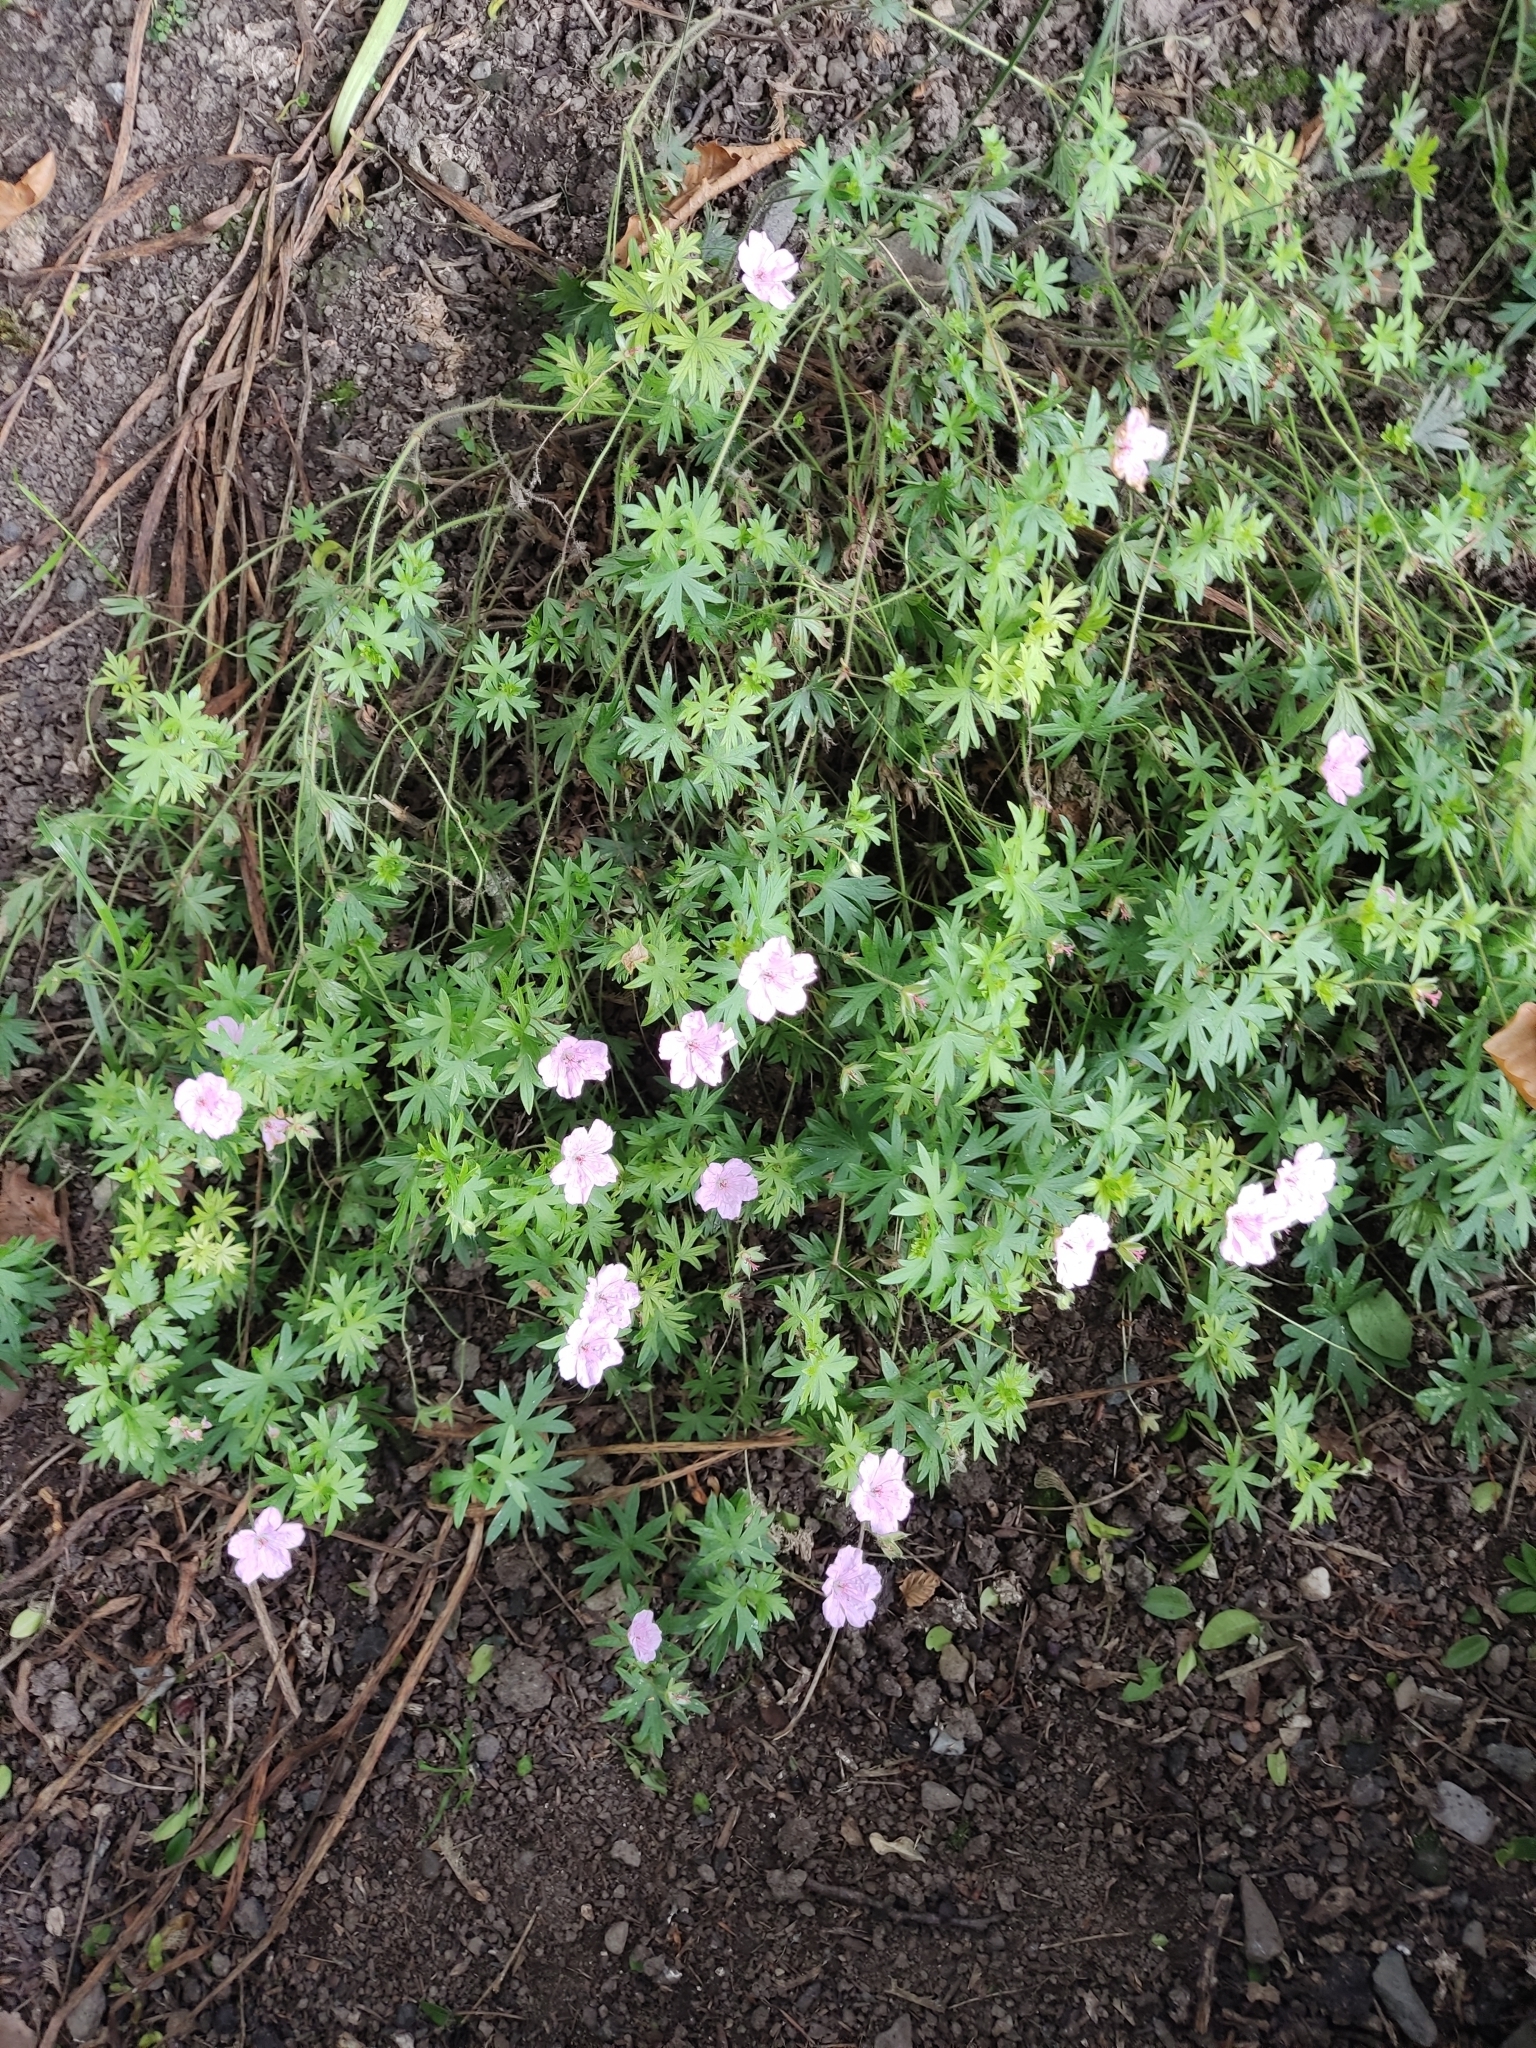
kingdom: Plantae
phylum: Tracheophyta
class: Magnoliopsida
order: Geraniales
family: Geraniaceae
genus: Geranium
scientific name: Geranium sanguineum
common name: Bloody crane's-bill
